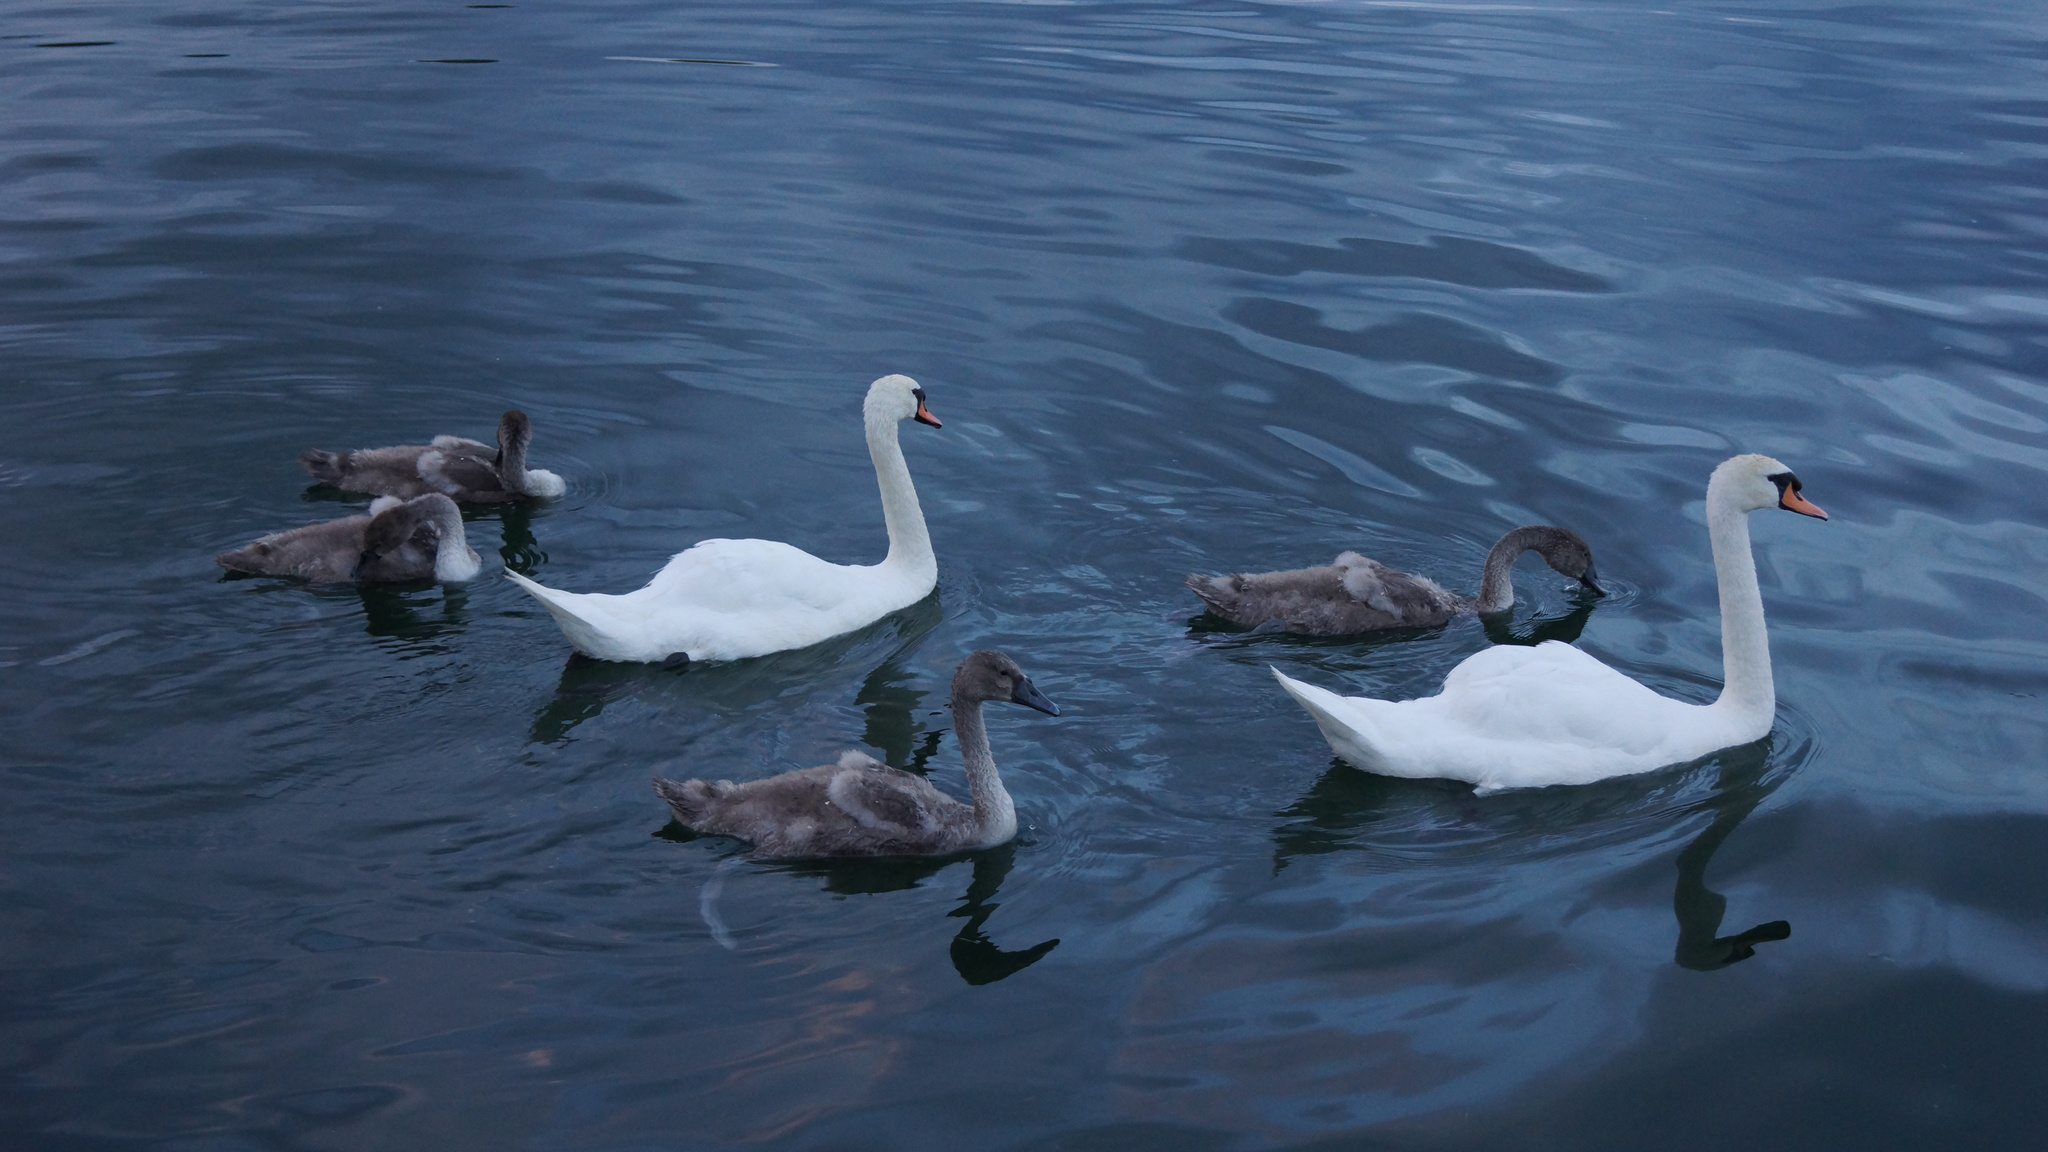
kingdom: Animalia
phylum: Chordata
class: Aves
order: Anseriformes
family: Anatidae
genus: Cygnus
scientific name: Cygnus olor
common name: Mute swan
